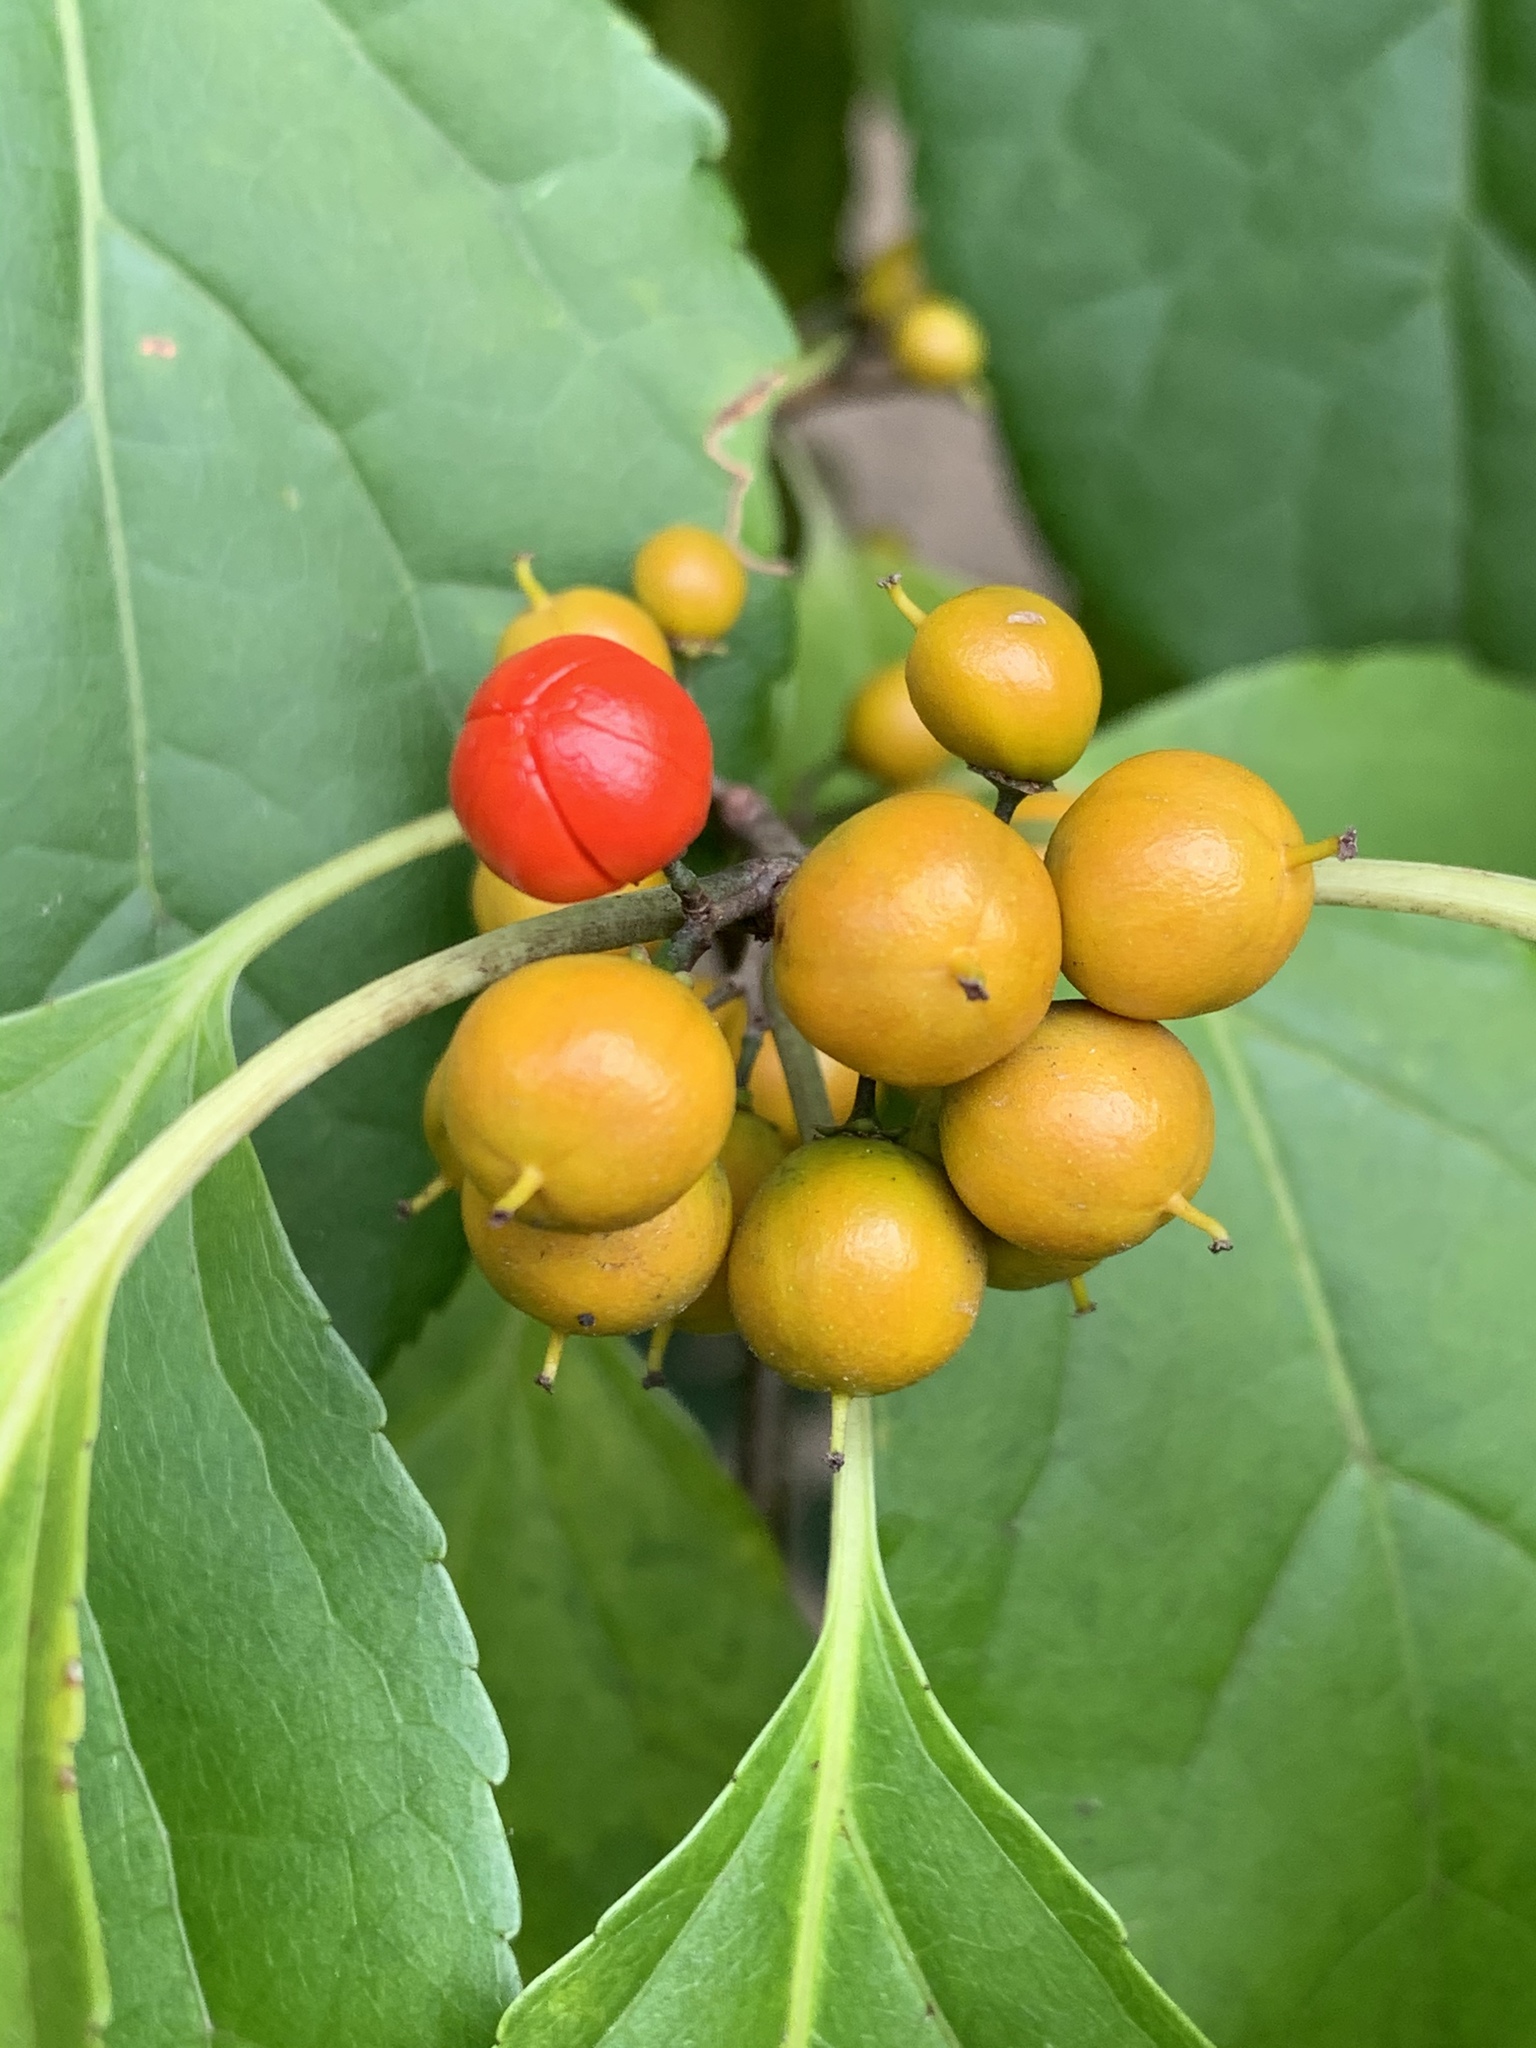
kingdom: Plantae
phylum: Tracheophyta
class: Magnoliopsida
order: Celastrales
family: Celastraceae
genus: Celastrus
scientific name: Celastrus orbiculatus
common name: Oriental bittersweet
